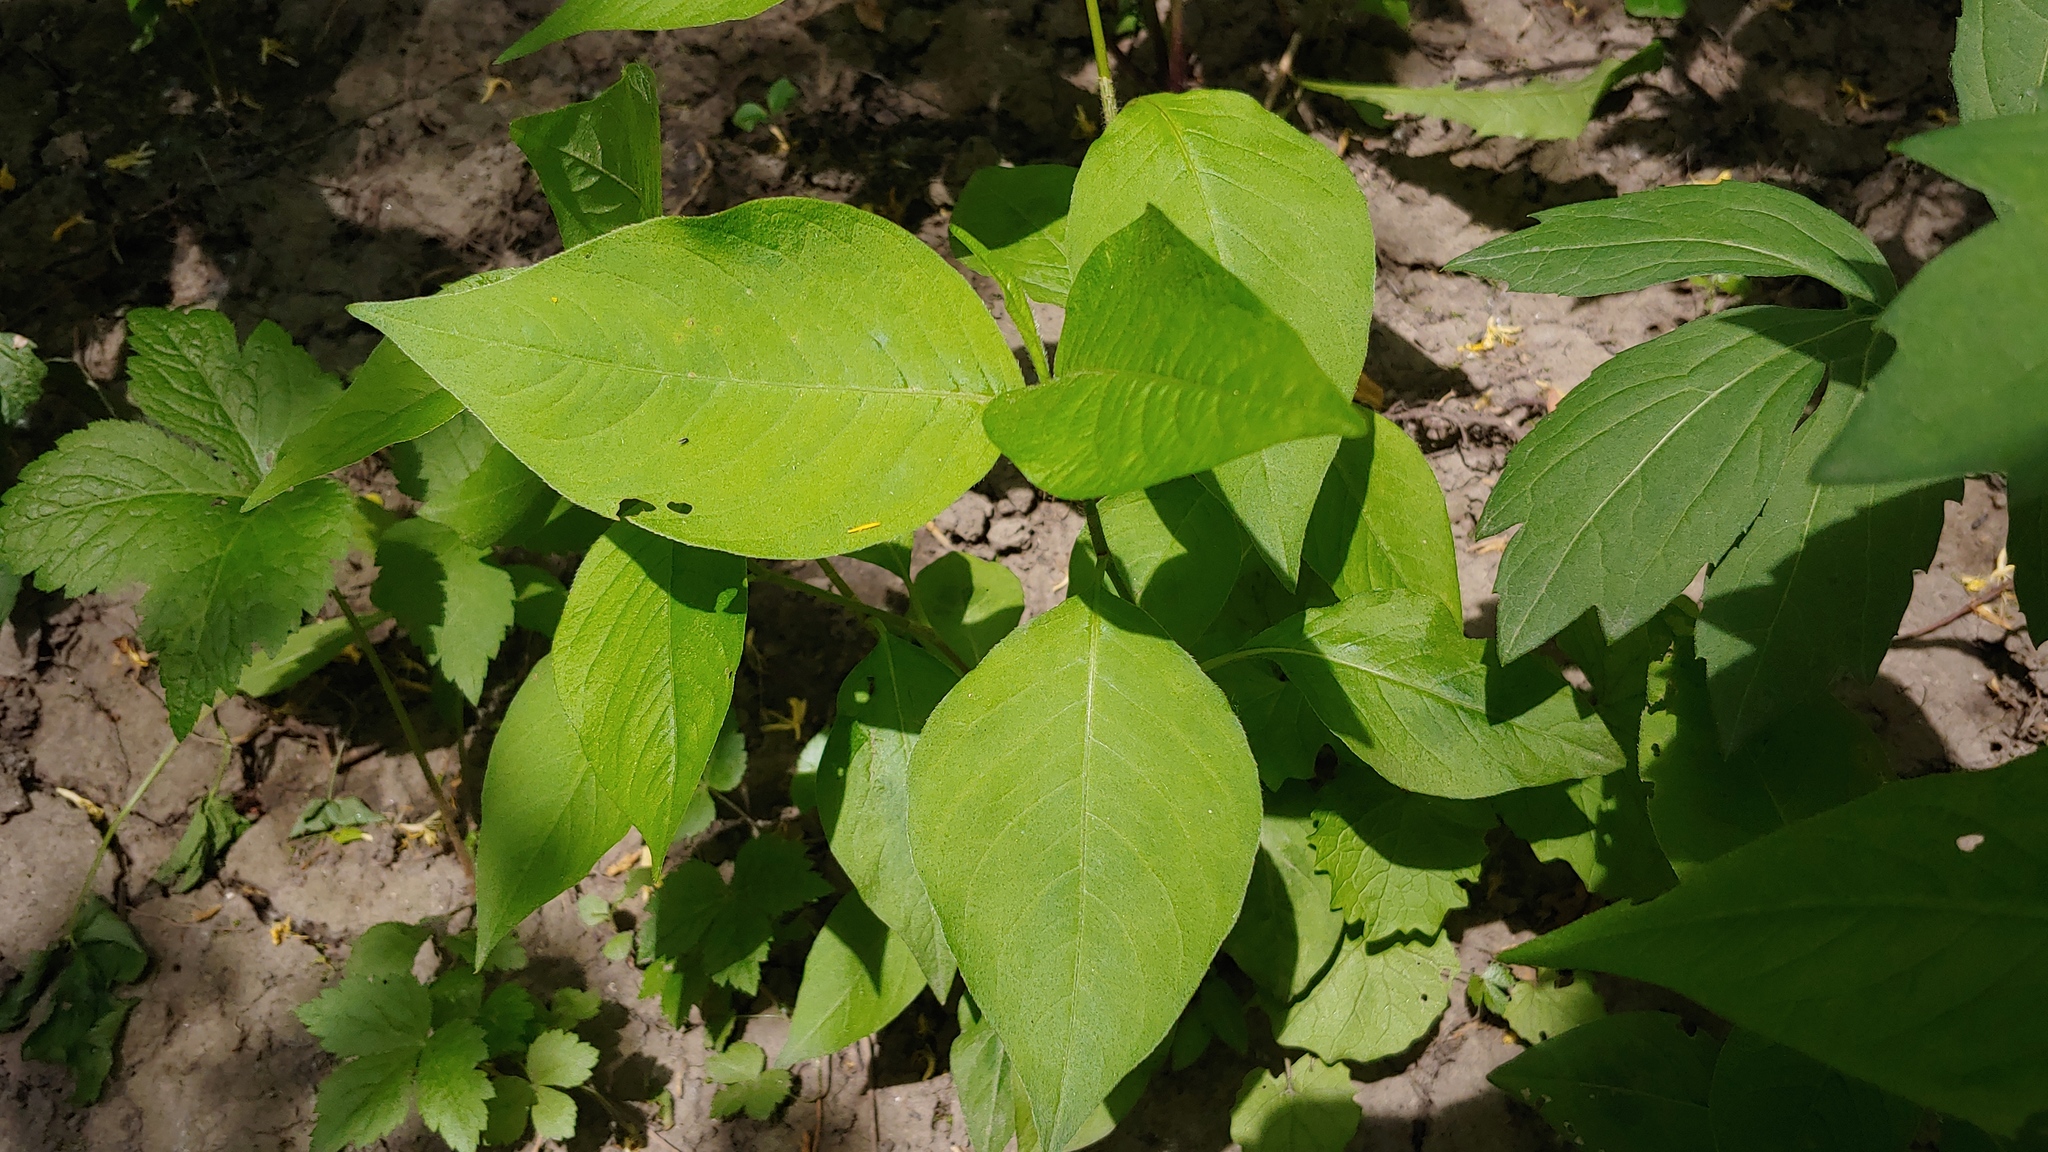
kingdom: Plantae
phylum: Tracheophyta
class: Magnoliopsida
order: Caryophyllales
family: Polygonaceae
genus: Persicaria
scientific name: Persicaria virginiana
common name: Jumpseed
